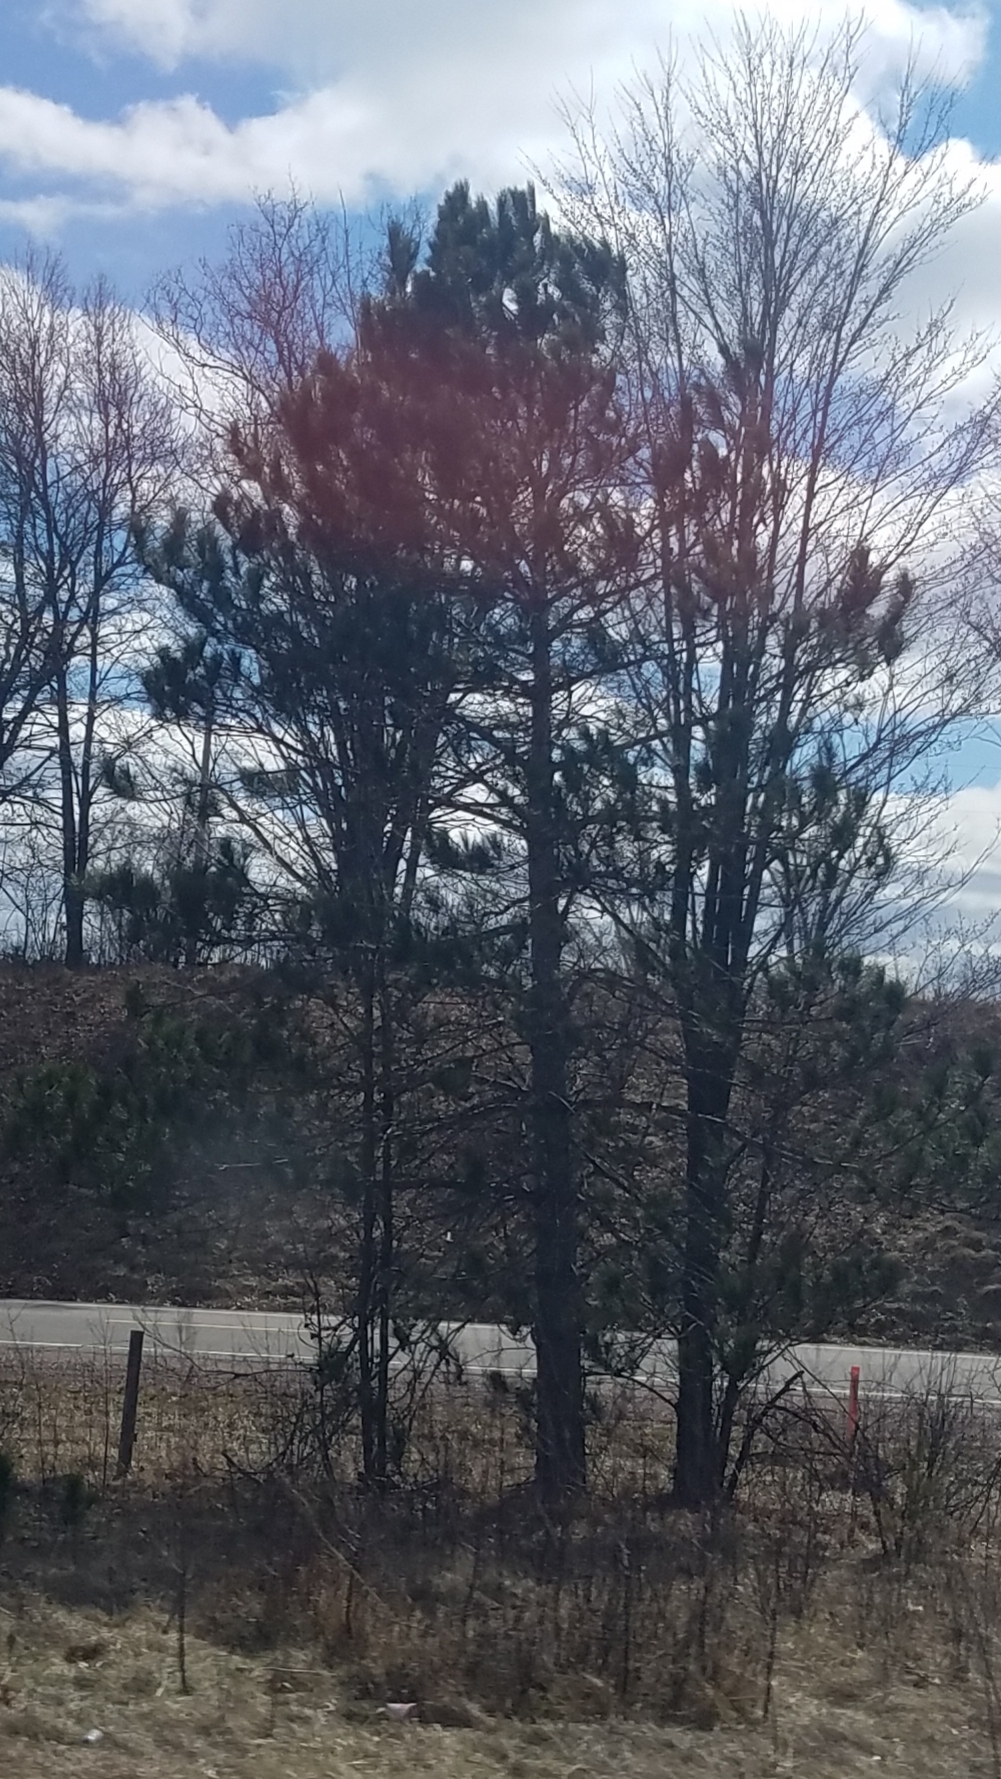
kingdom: Plantae
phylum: Tracheophyta
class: Pinopsida
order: Pinales
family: Pinaceae
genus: Pinus
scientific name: Pinus resinosa
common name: Norway pine
